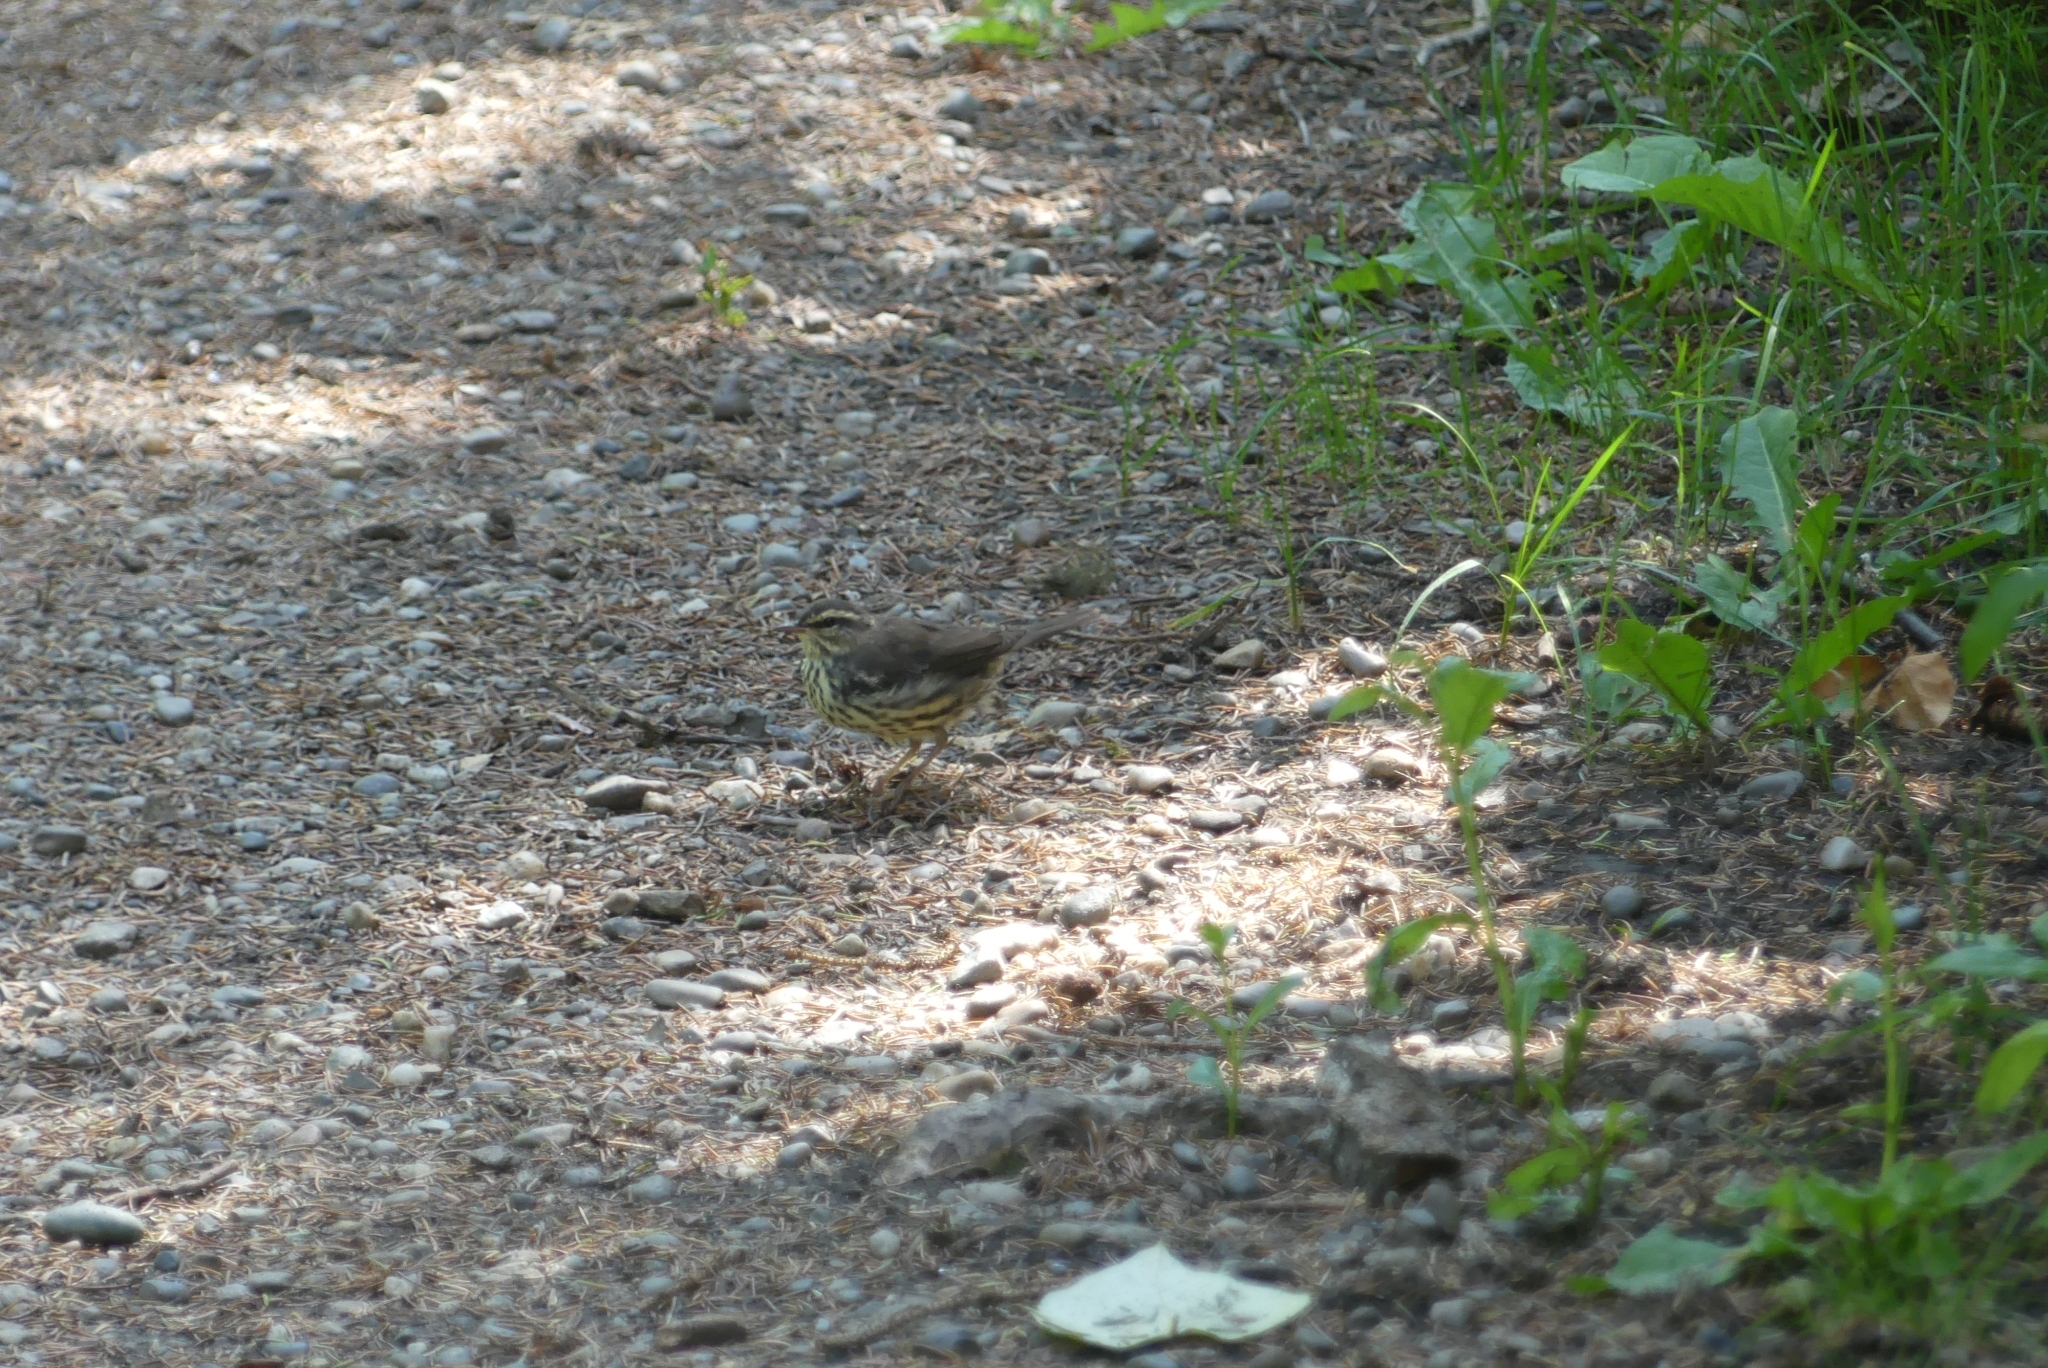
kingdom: Animalia
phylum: Chordata
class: Aves
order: Passeriformes
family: Parulidae
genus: Parkesia
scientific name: Parkesia noveboracensis
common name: Northern waterthrush
